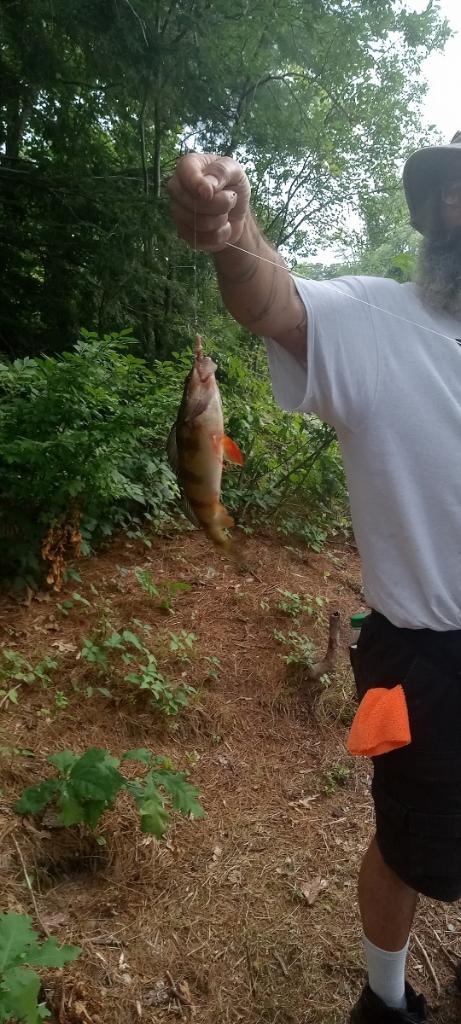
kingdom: Animalia
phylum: Chordata
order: Perciformes
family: Percidae
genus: Perca
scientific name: Perca flavescens
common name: Yellow perch
